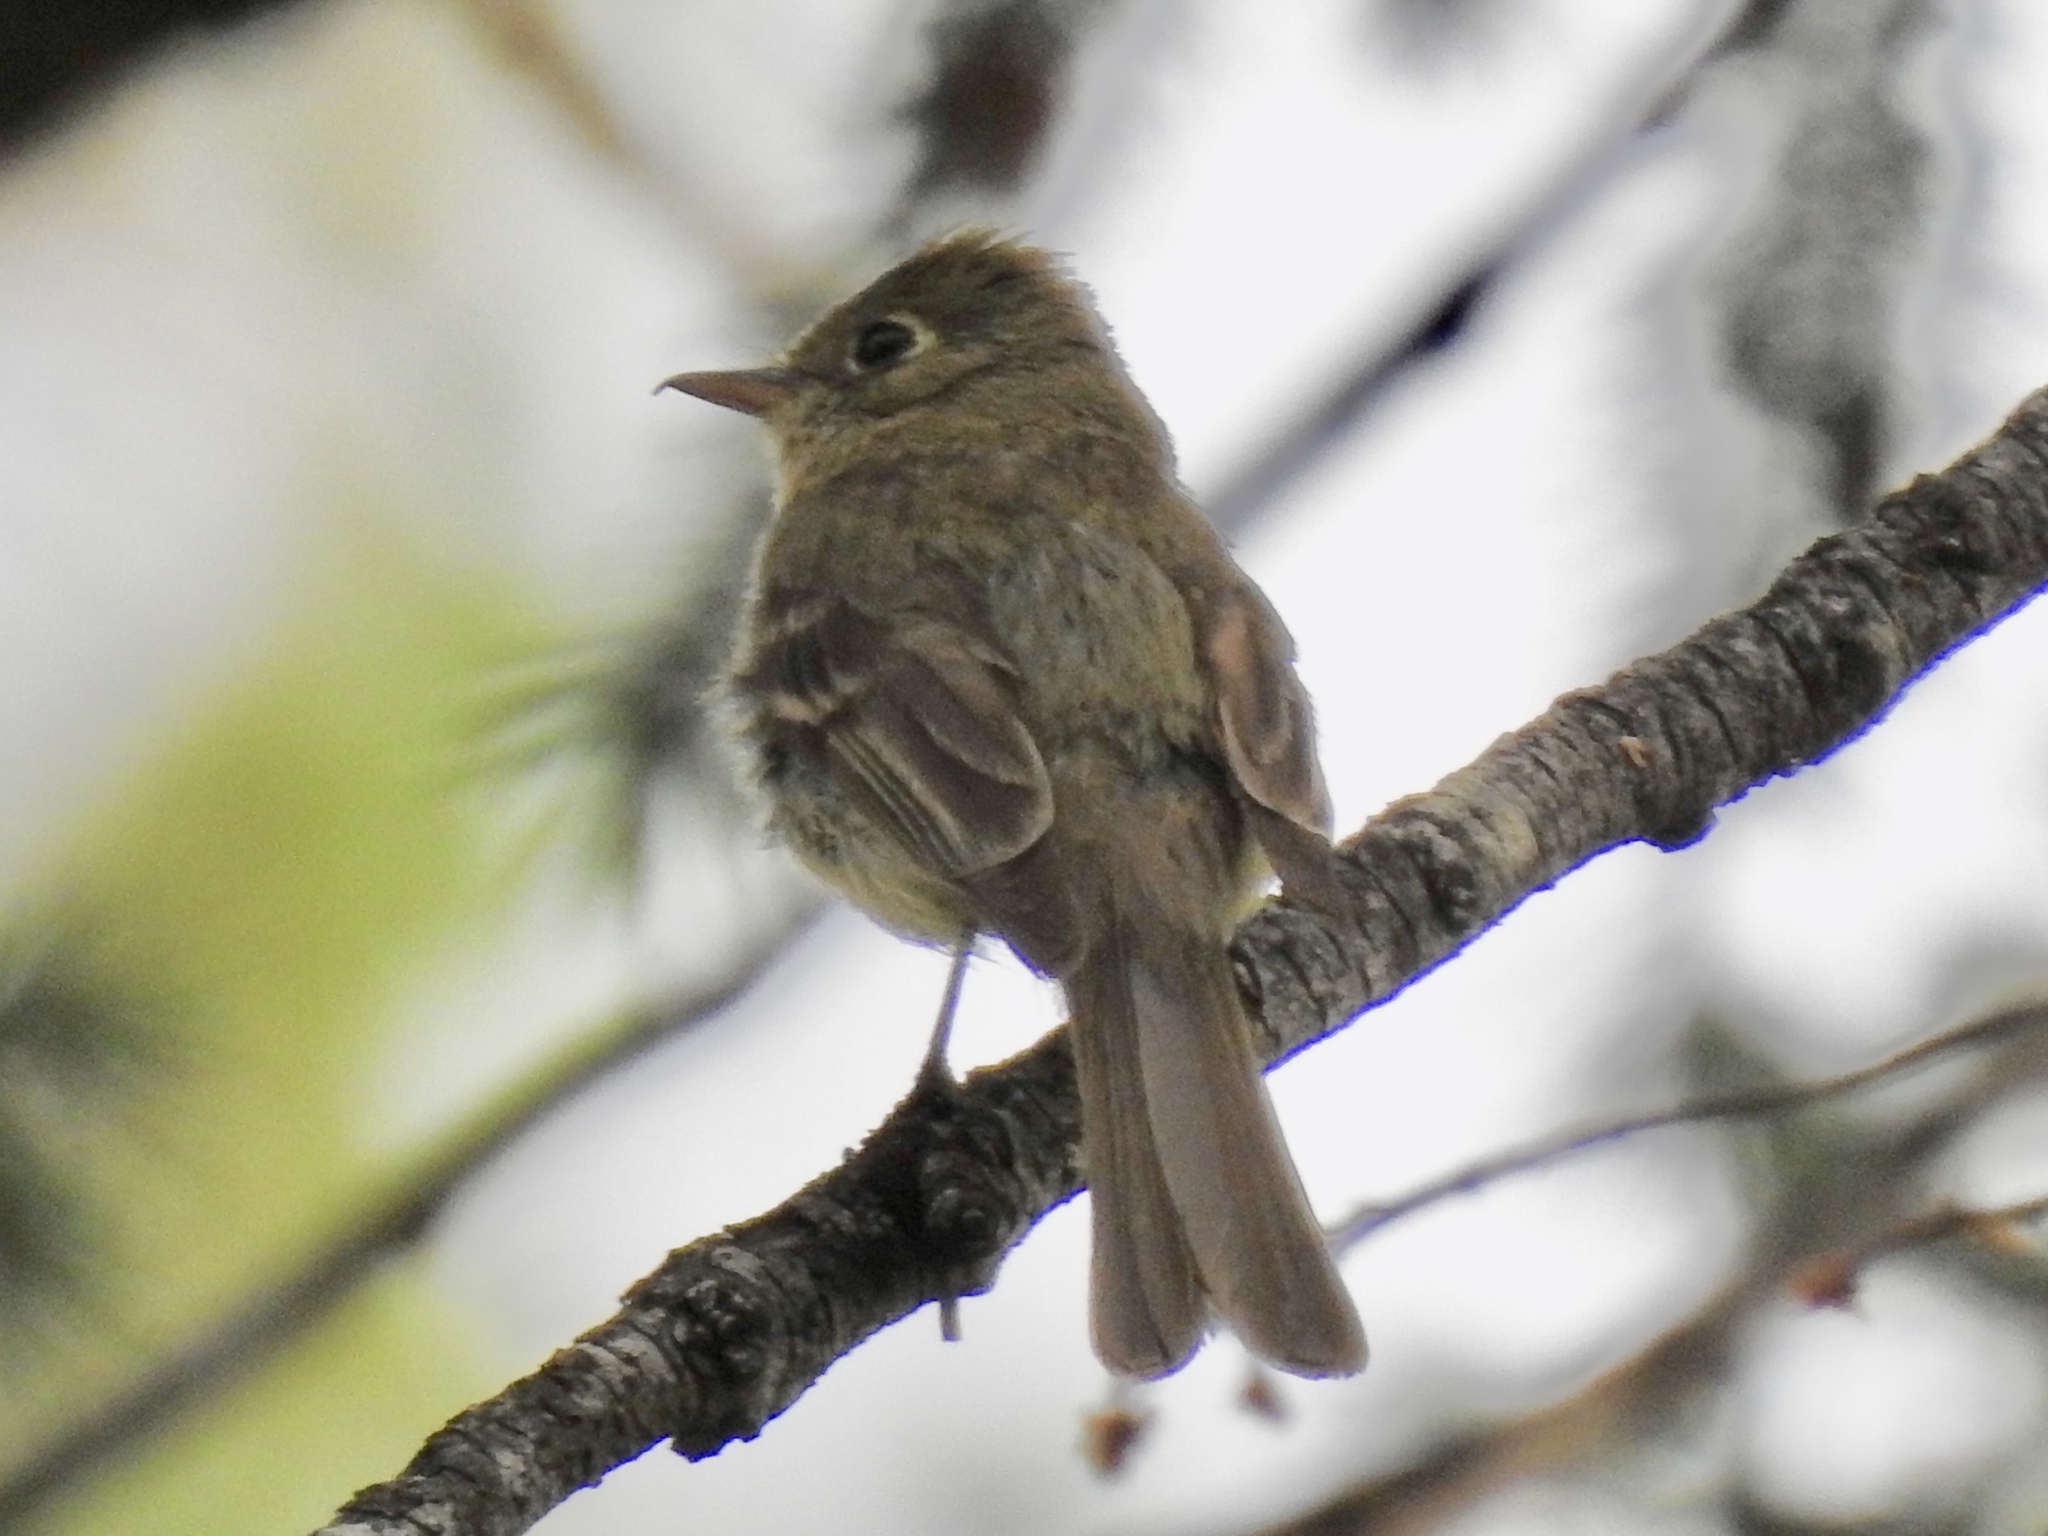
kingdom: Animalia
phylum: Chordata
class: Aves
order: Passeriformes
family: Tyrannidae
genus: Empidonax
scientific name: Empidonax difficilis
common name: Pacific-slope flycatcher
